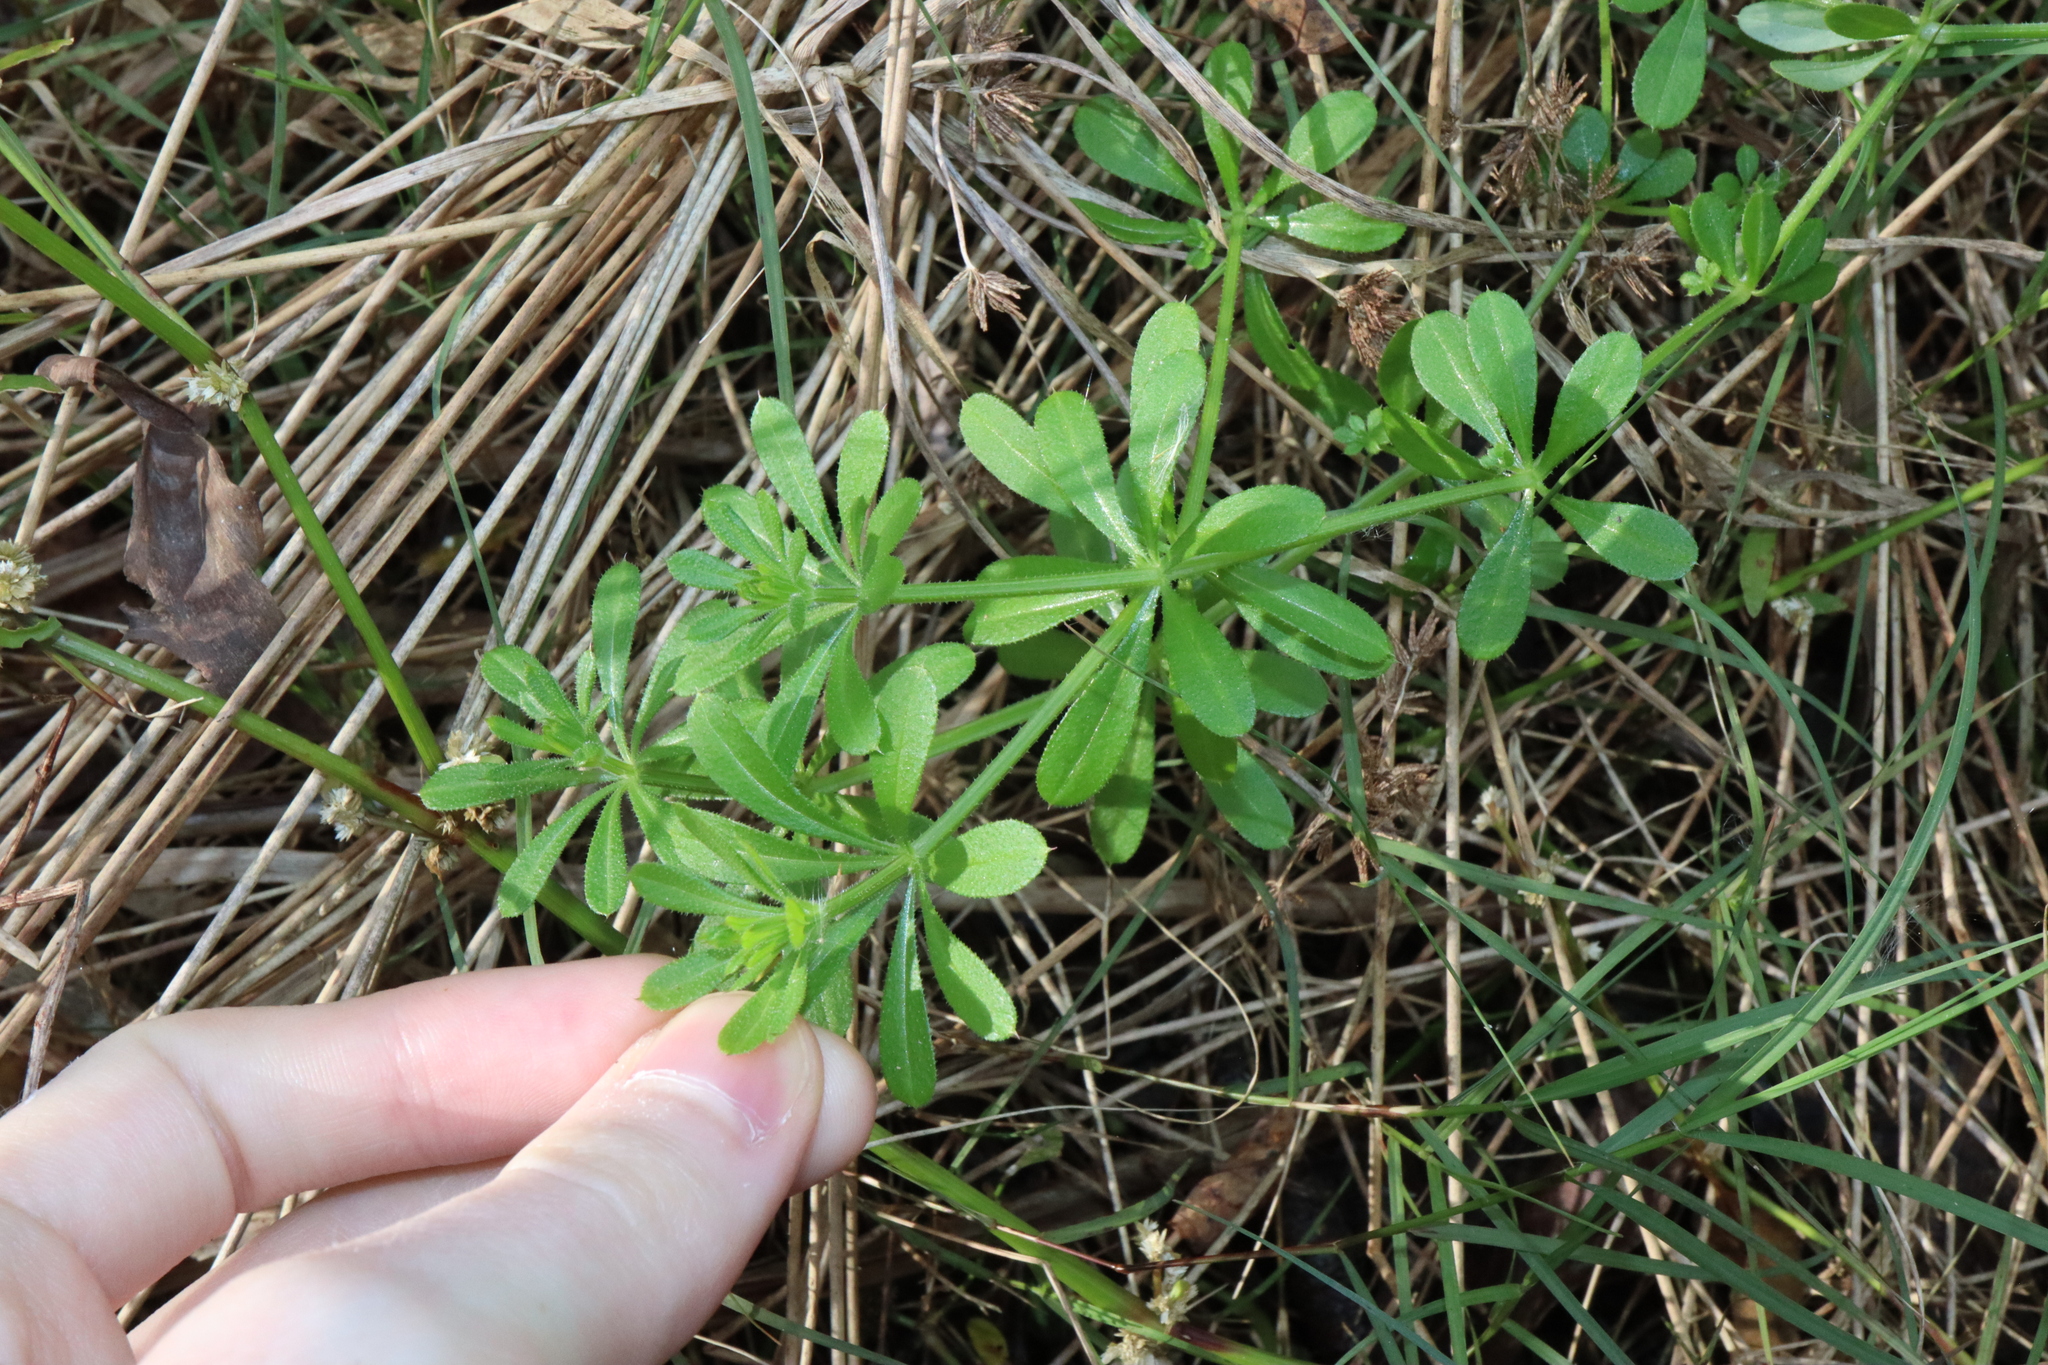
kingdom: Plantae
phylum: Tracheophyta
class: Magnoliopsida
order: Gentianales
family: Rubiaceae
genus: Galium
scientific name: Galium aparine
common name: Cleavers
